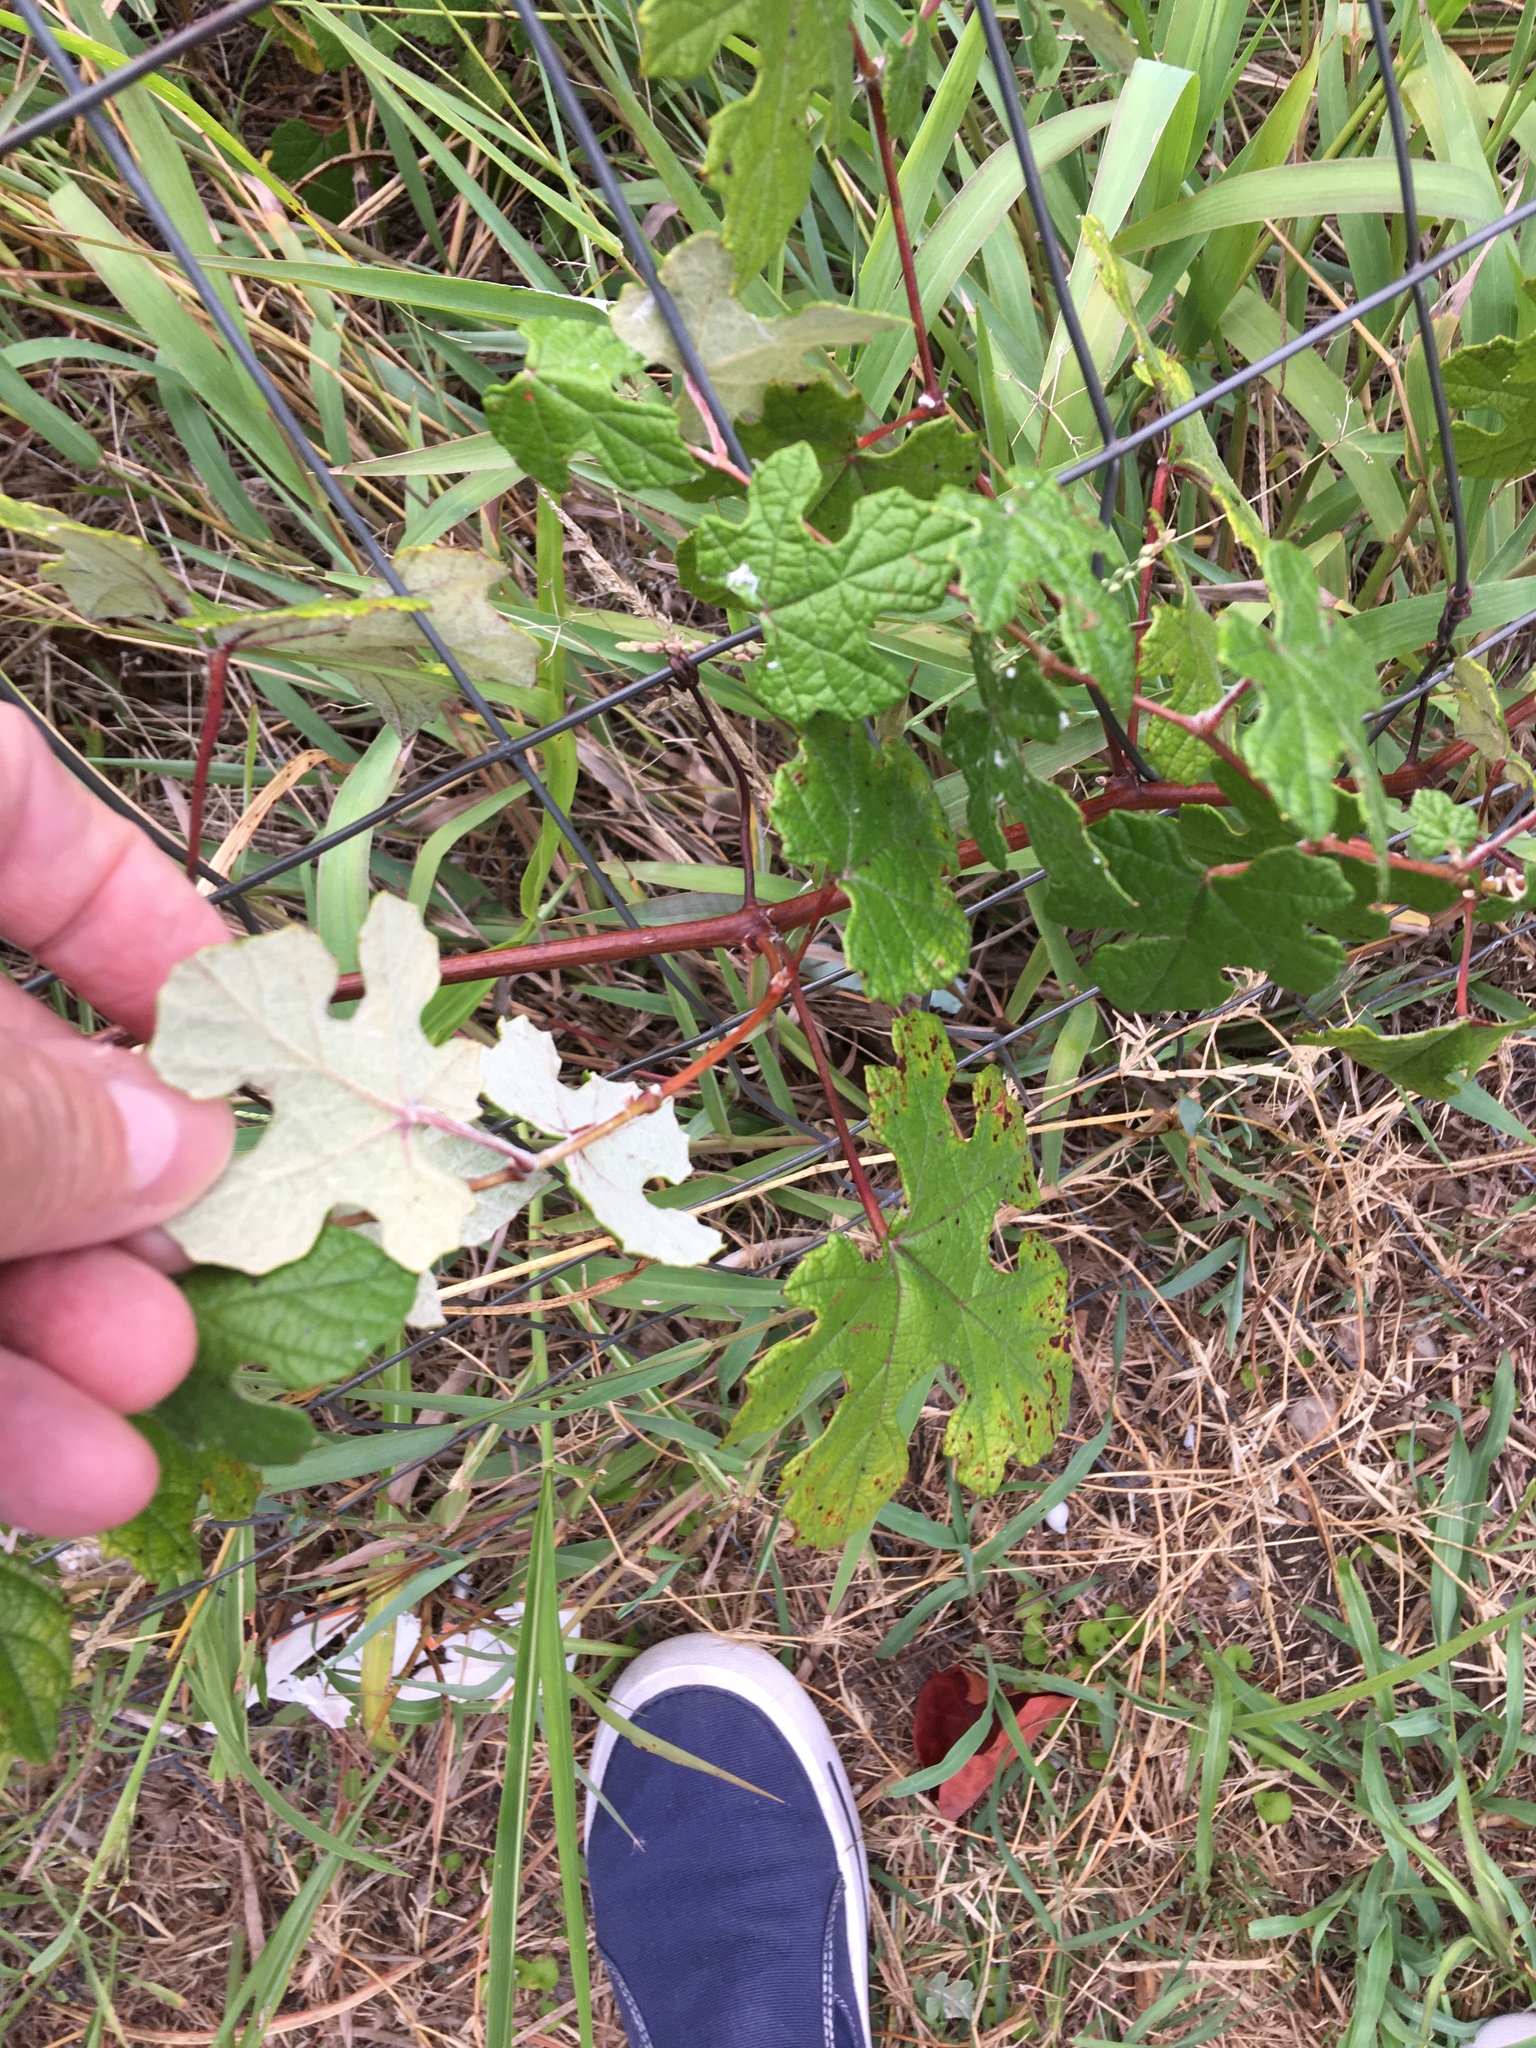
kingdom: Plantae
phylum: Tracheophyta
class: Magnoliopsida
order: Vitales
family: Vitaceae
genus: Vitis
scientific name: Vitis mustangensis
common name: Mustang grape
